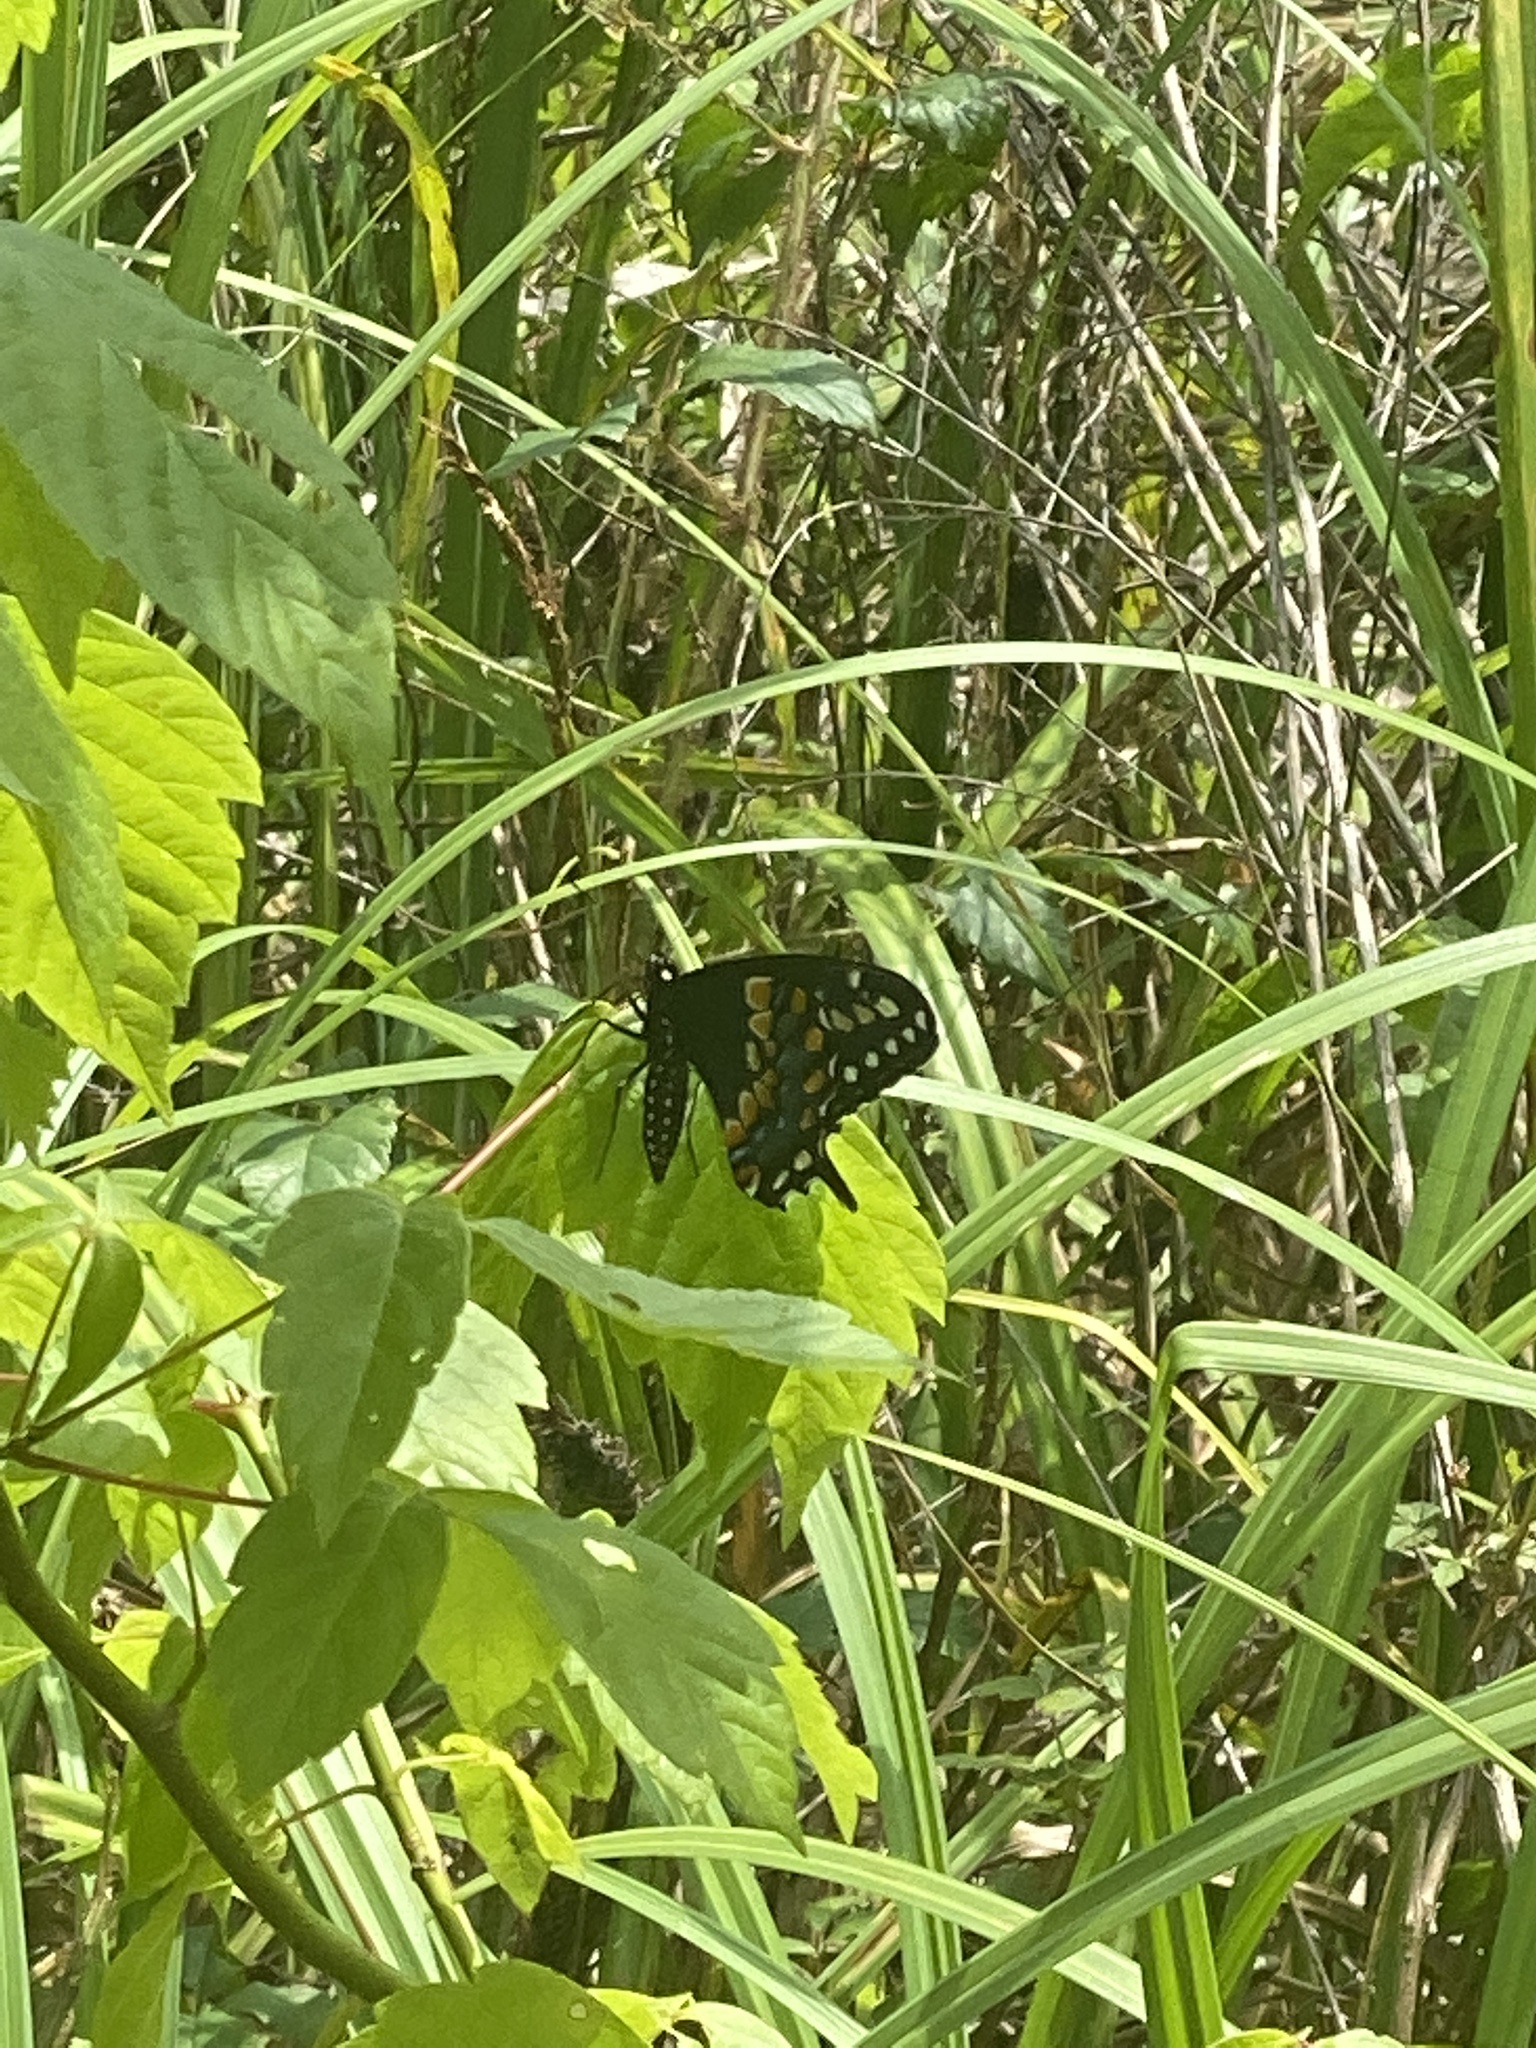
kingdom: Animalia
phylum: Arthropoda
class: Insecta
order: Lepidoptera
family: Papilionidae
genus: Papilio
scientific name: Papilio polyxenes
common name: Black swallowtail
